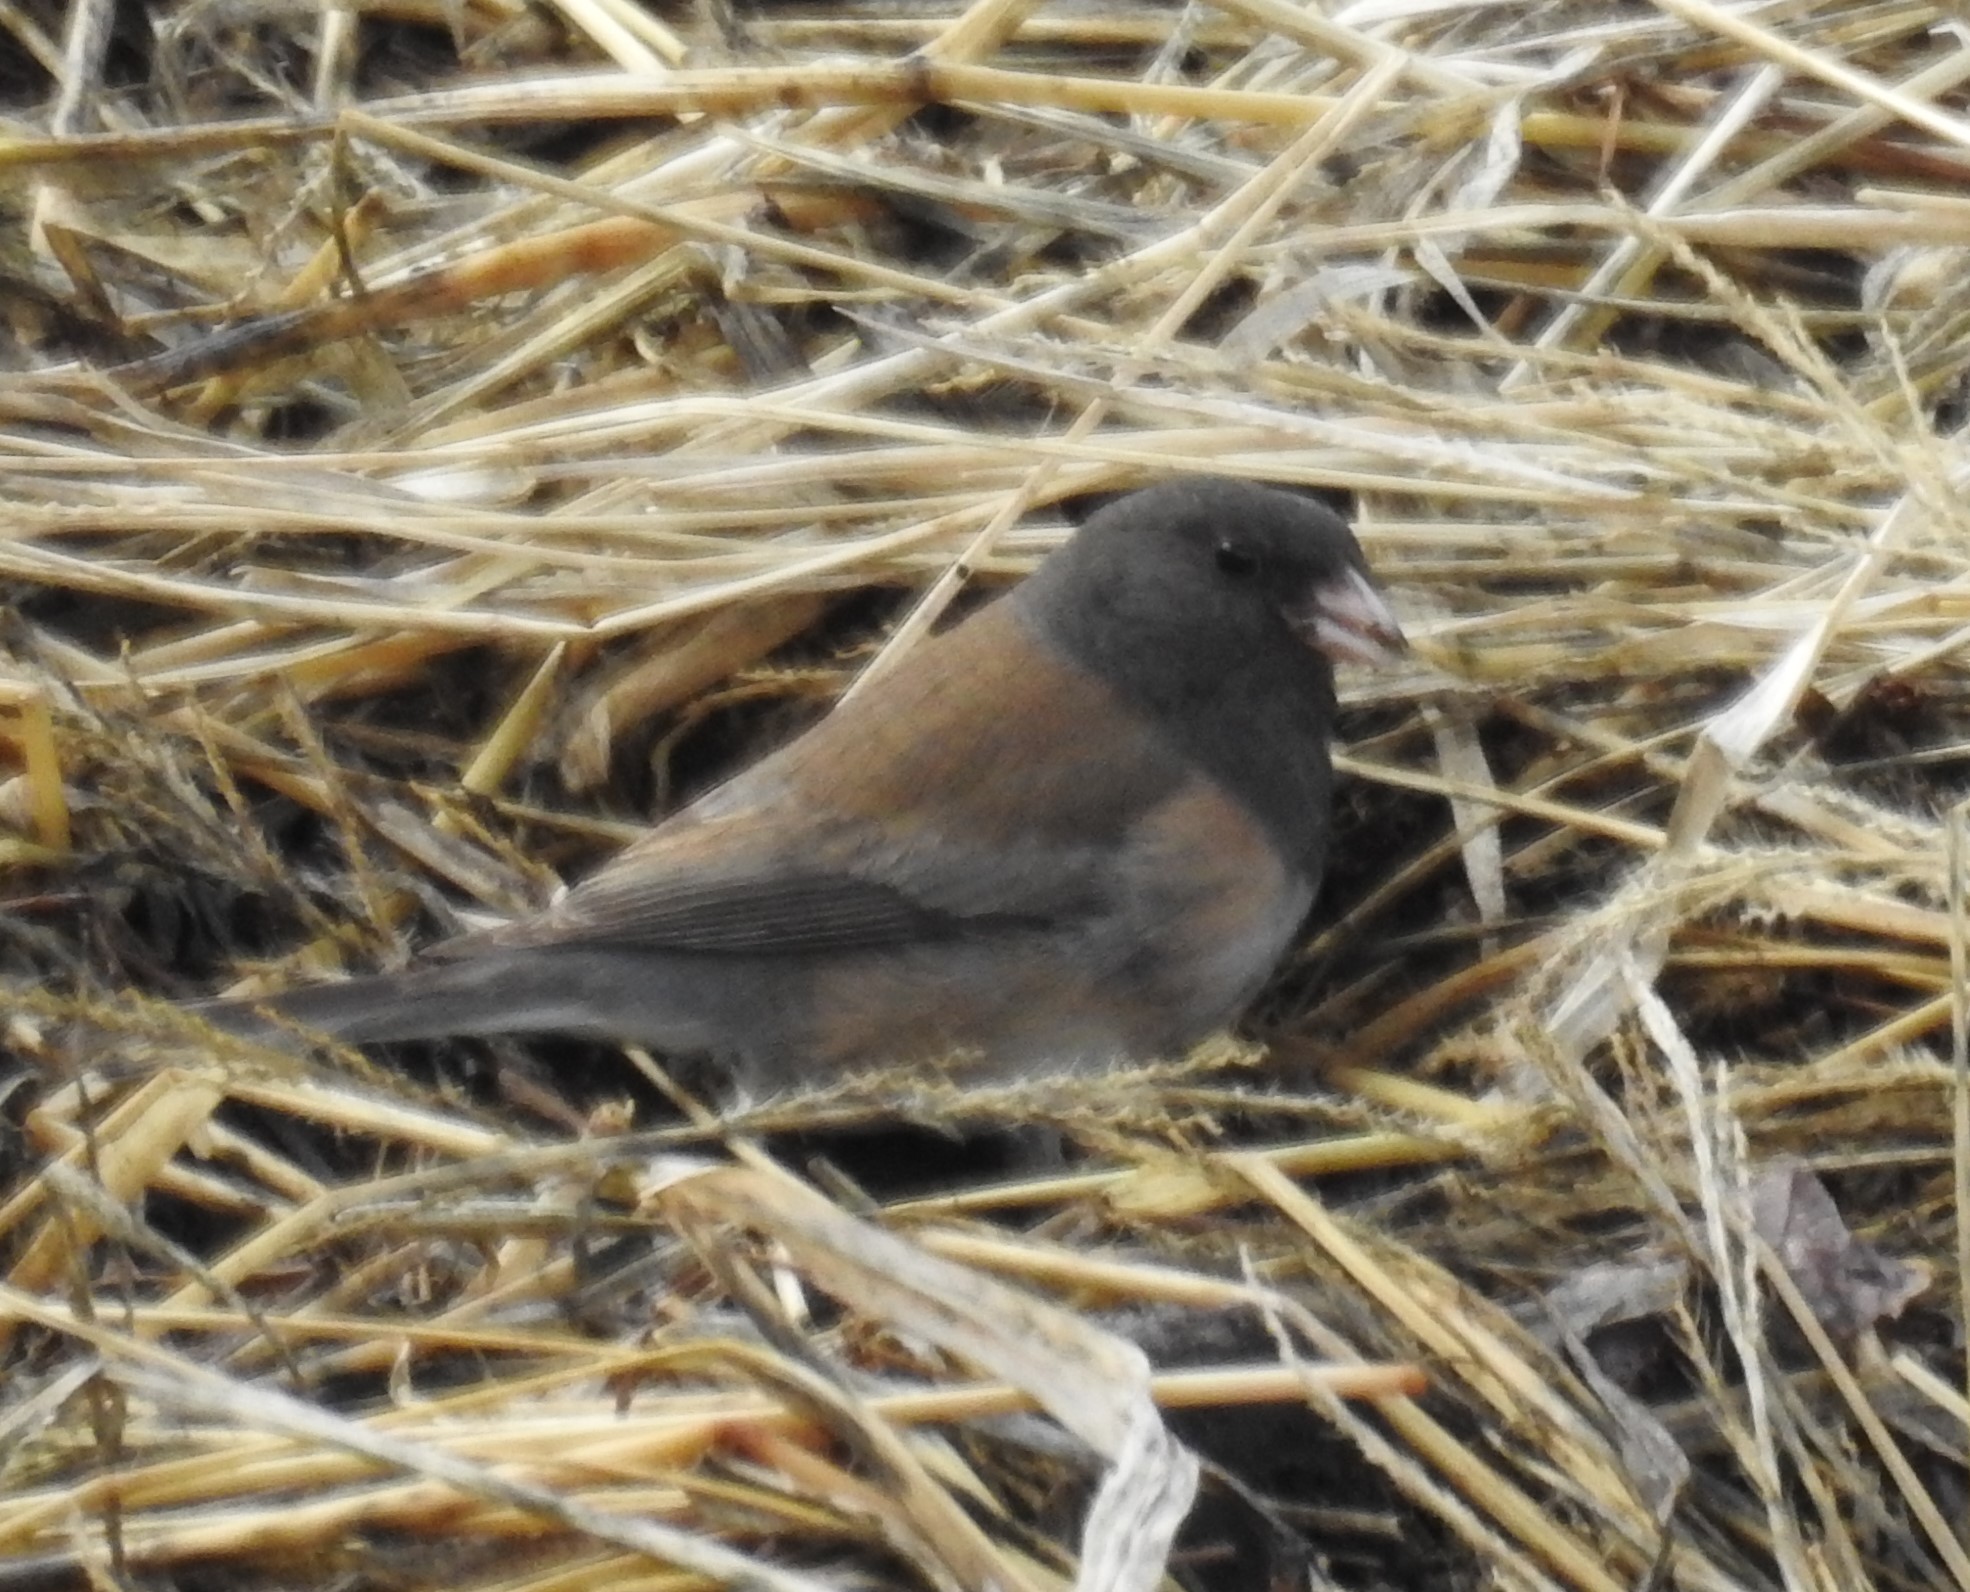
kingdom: Animalia
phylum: Chordata
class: Aves
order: Passeriformes
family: Passerellidae
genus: Junco
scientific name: Junco hyemalis
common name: Dark-eyed junco
